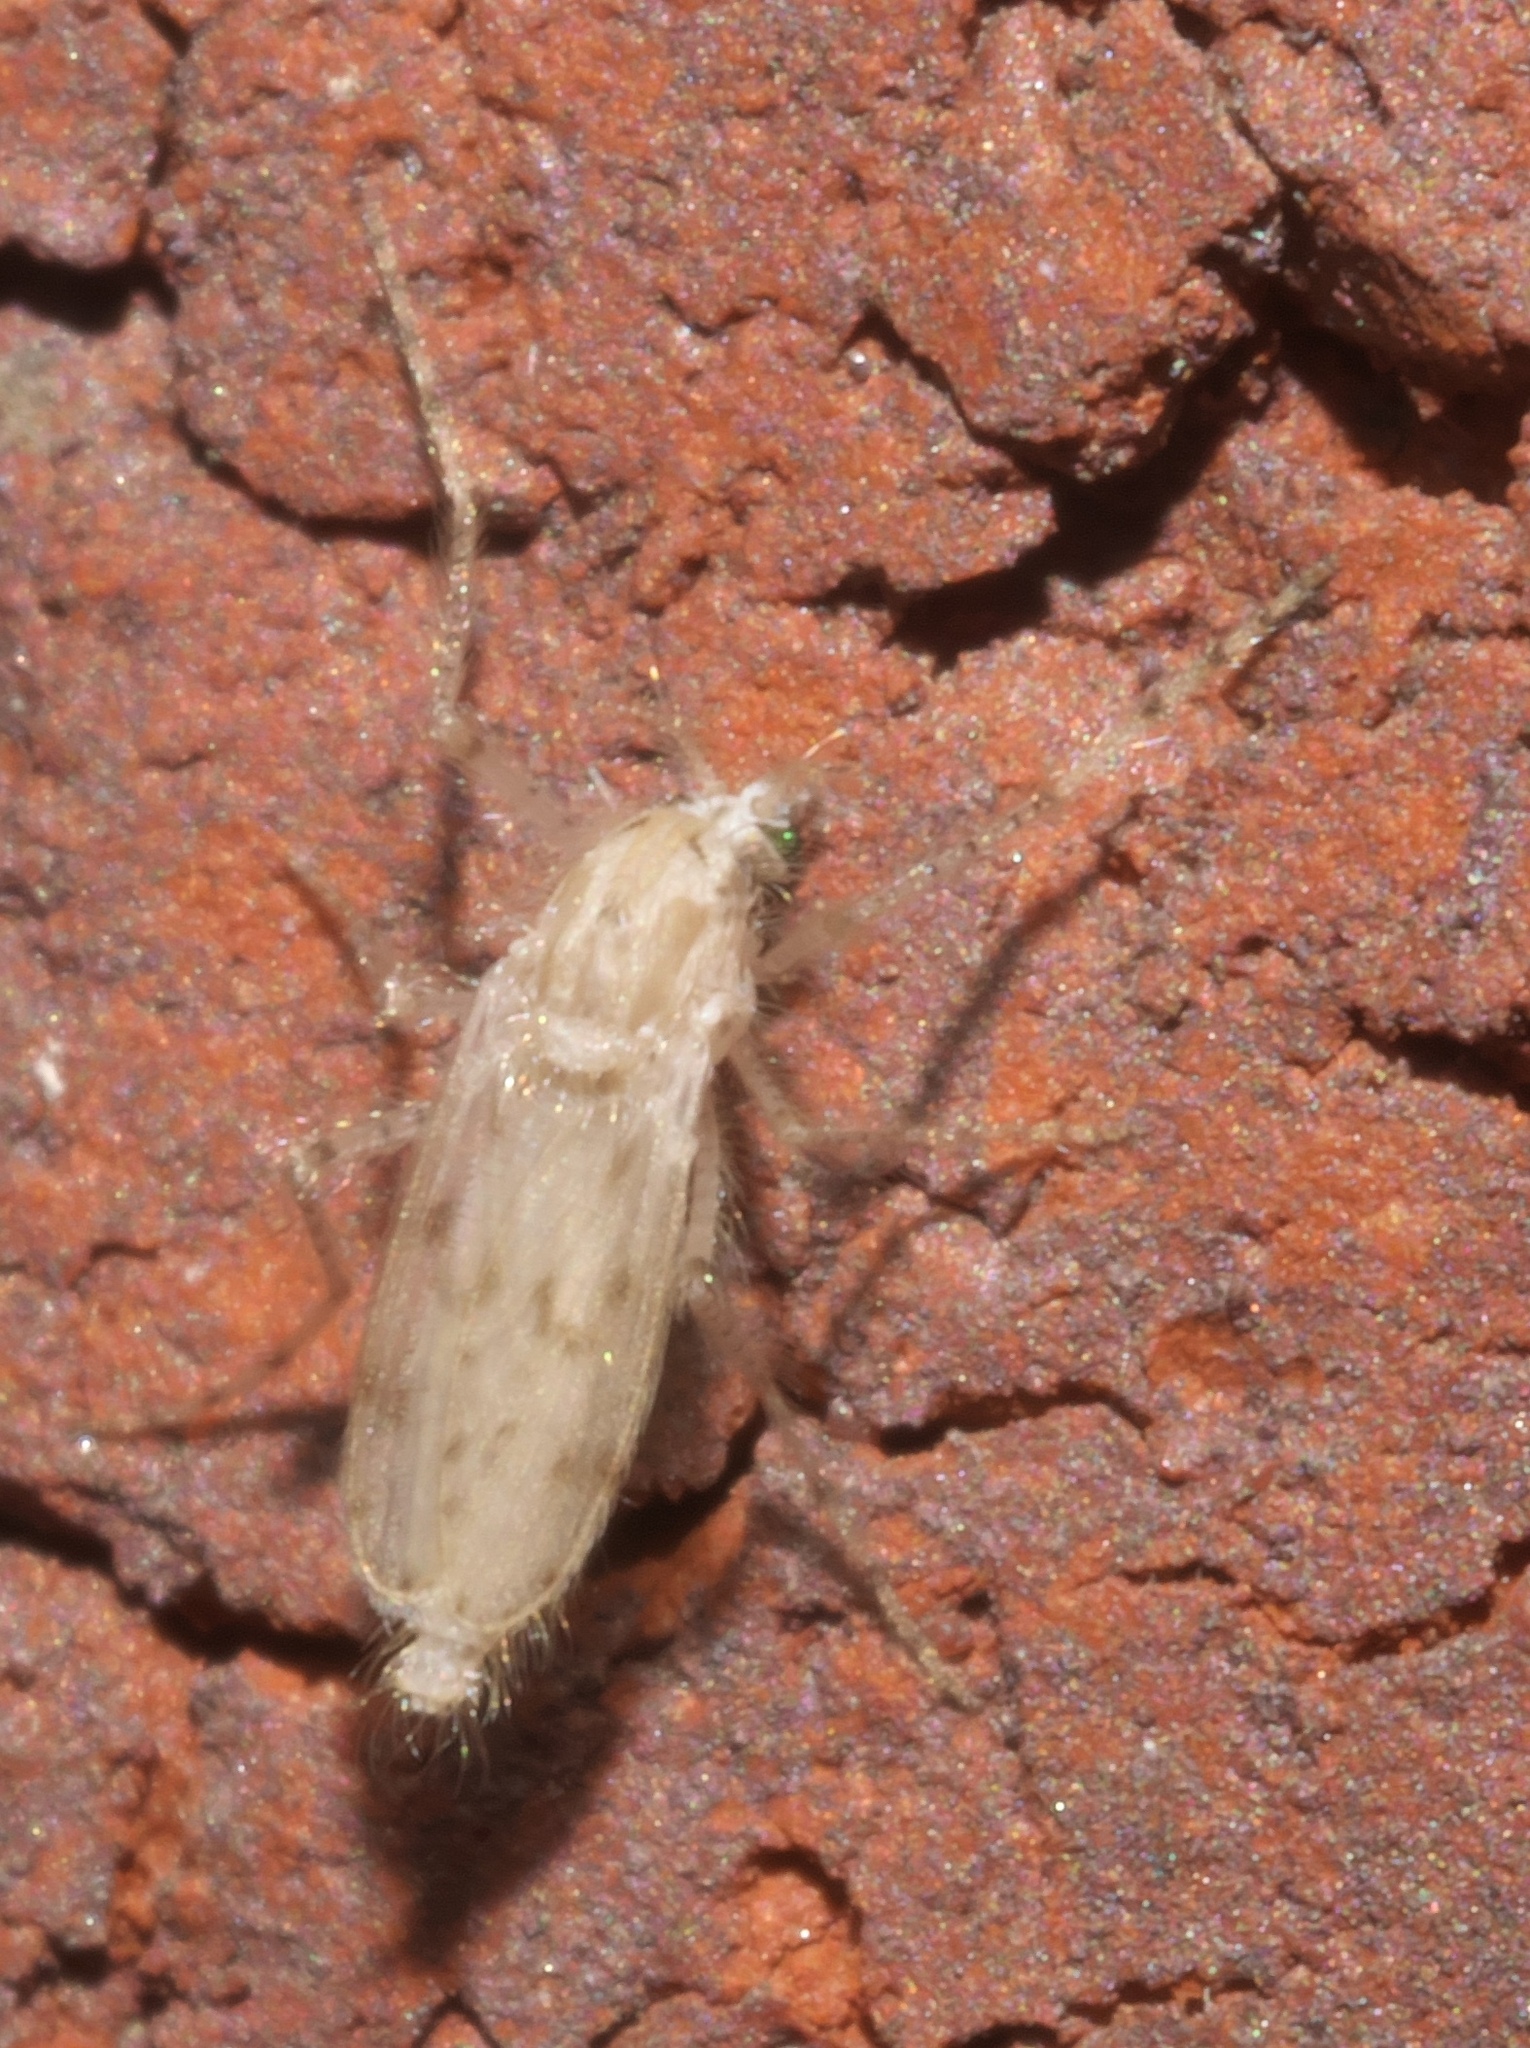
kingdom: Animalia
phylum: Arthropoda
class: Insecta
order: Diptera
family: Chaoboridae
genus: Chaoborus
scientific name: Chaoborus maculipes
